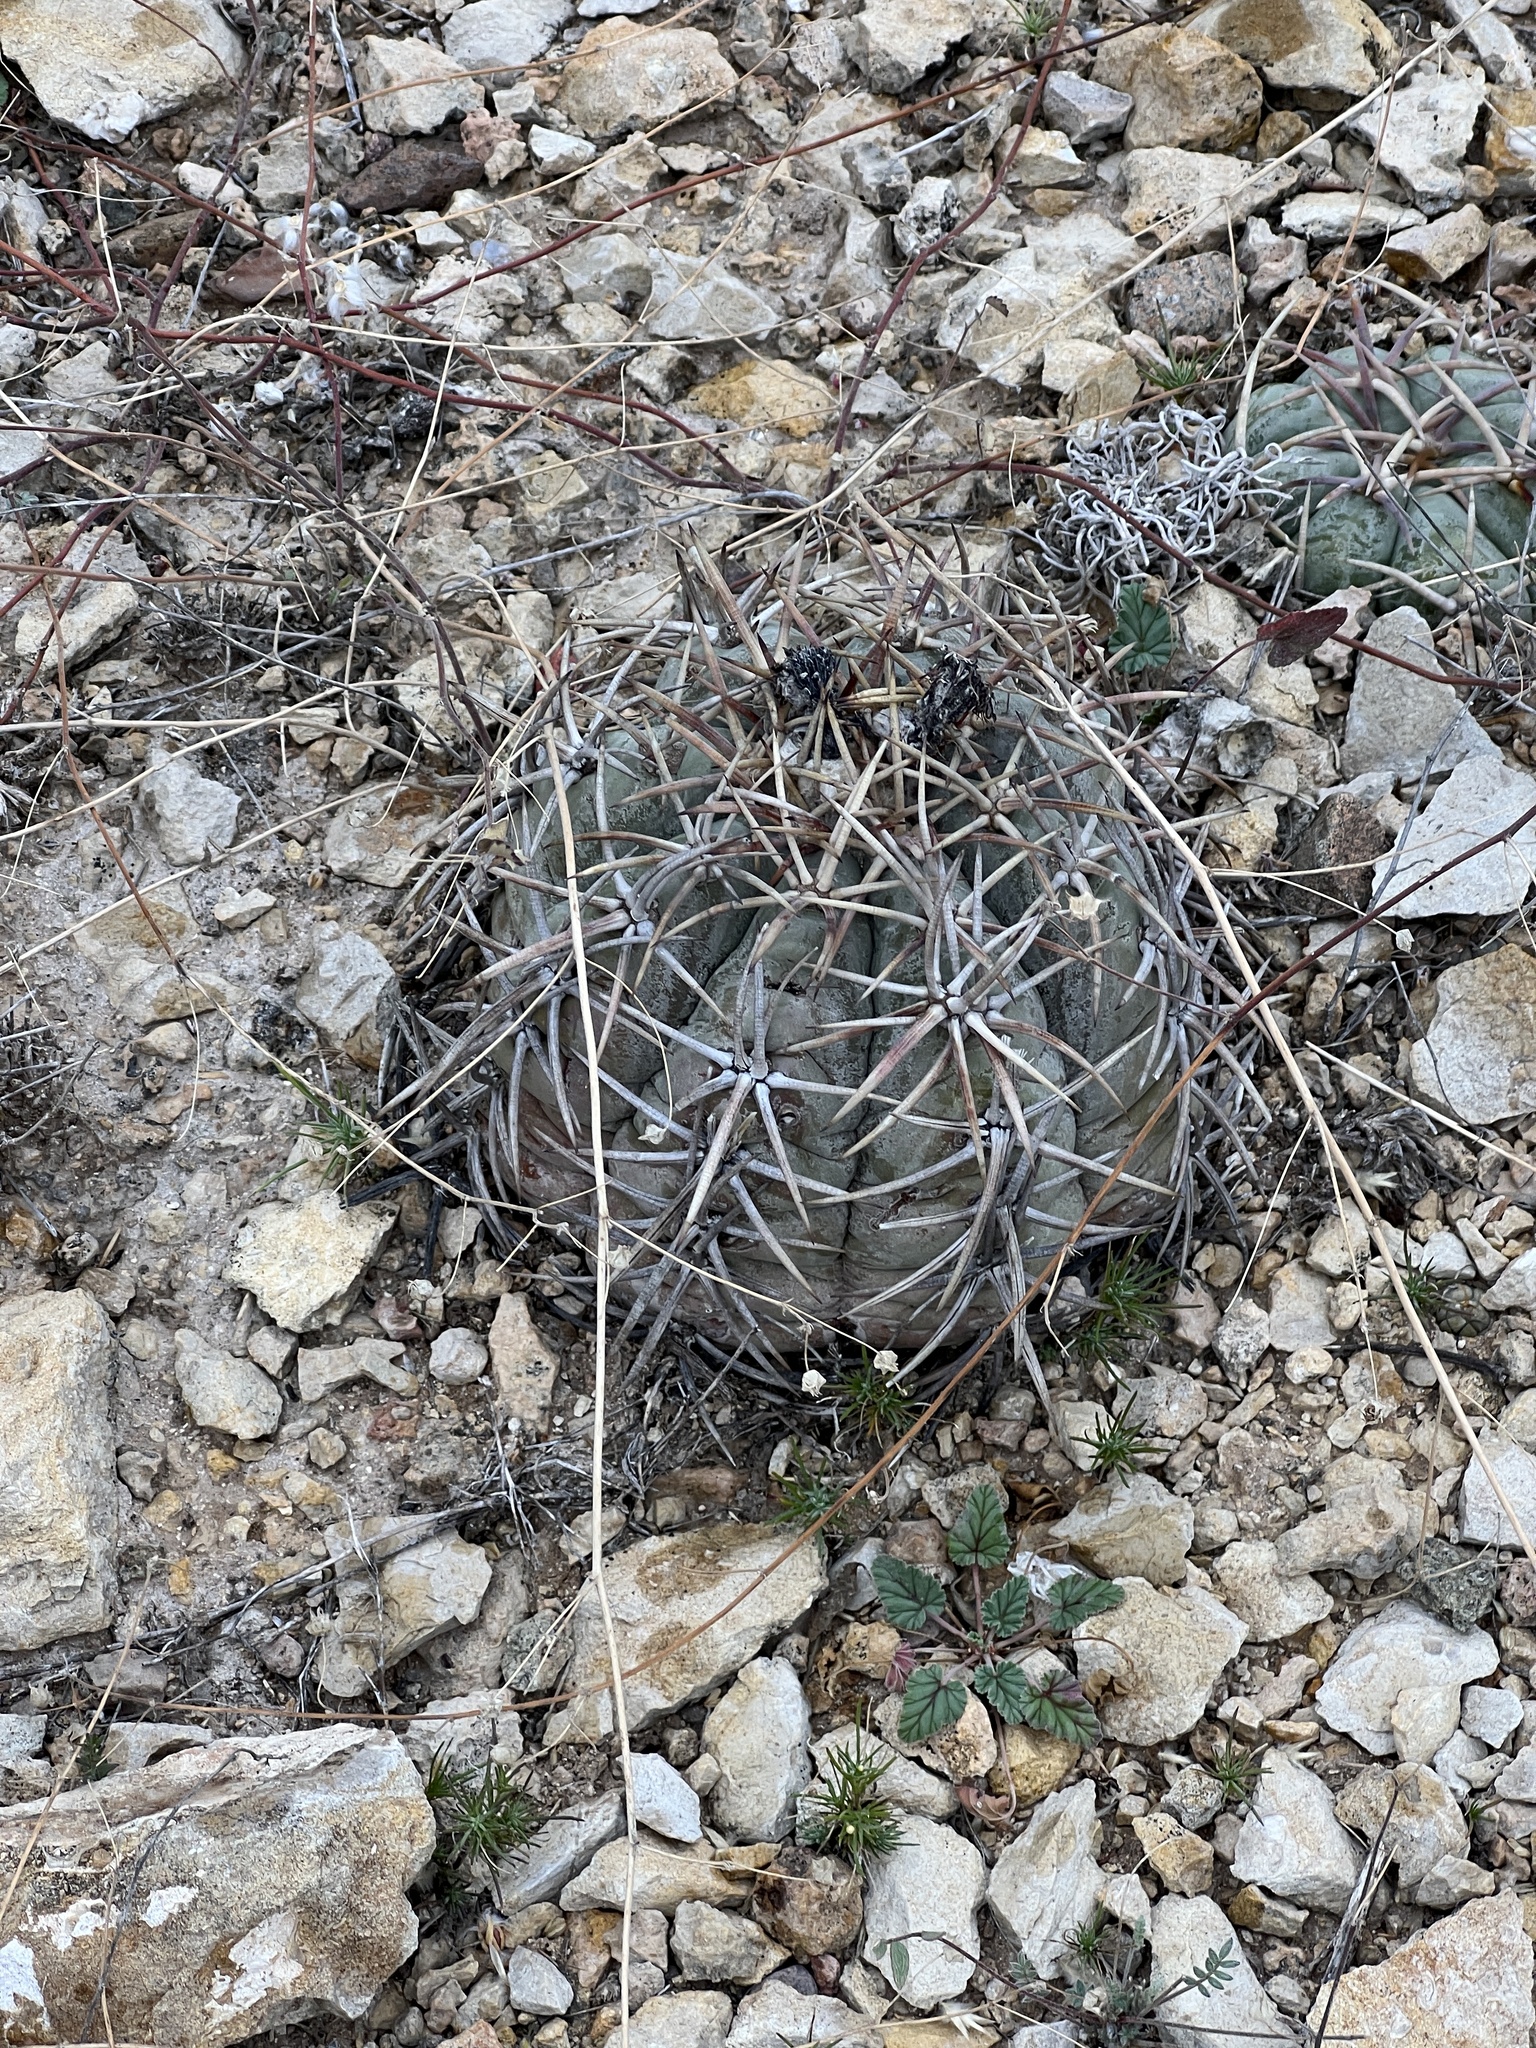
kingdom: Plantae
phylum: Tracheophyta
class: Magnoliopsida
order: Caryophyllales
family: Cactaceae
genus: Echinocactus
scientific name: Echinocactus horizonthalonius
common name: Devilshead
